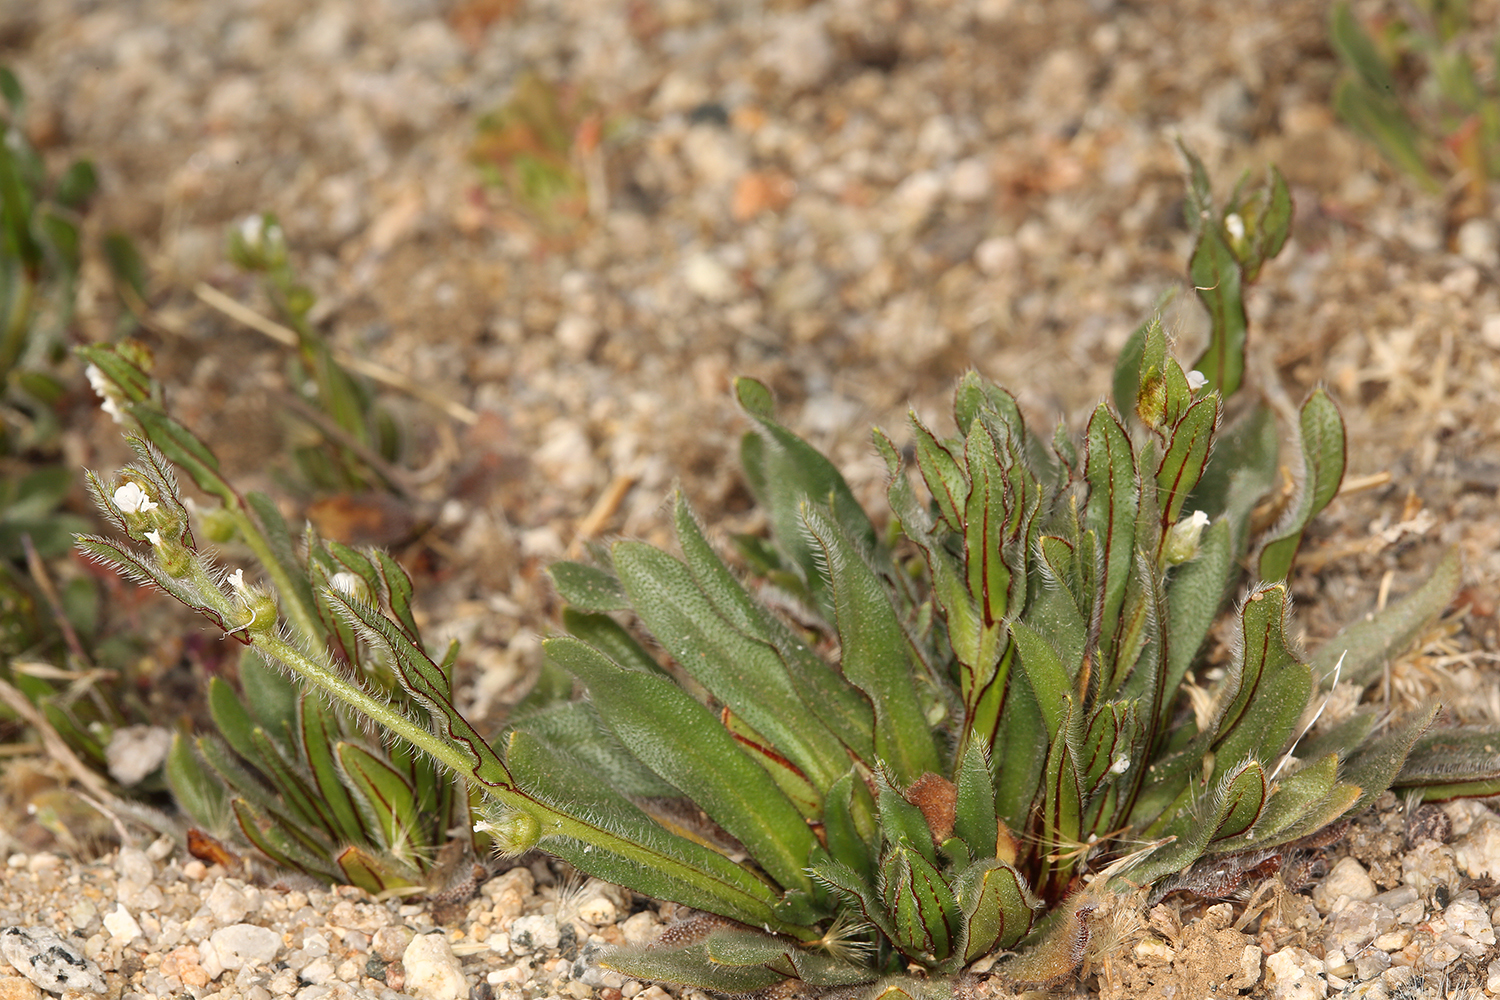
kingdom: Plantae
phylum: Tracheophyta
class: Magnoliopsida
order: Boraginales
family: Boraginaceae
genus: Plagiobothrys
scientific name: Plagiobothrys arizonicus
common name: Arizona popcorn-flower
